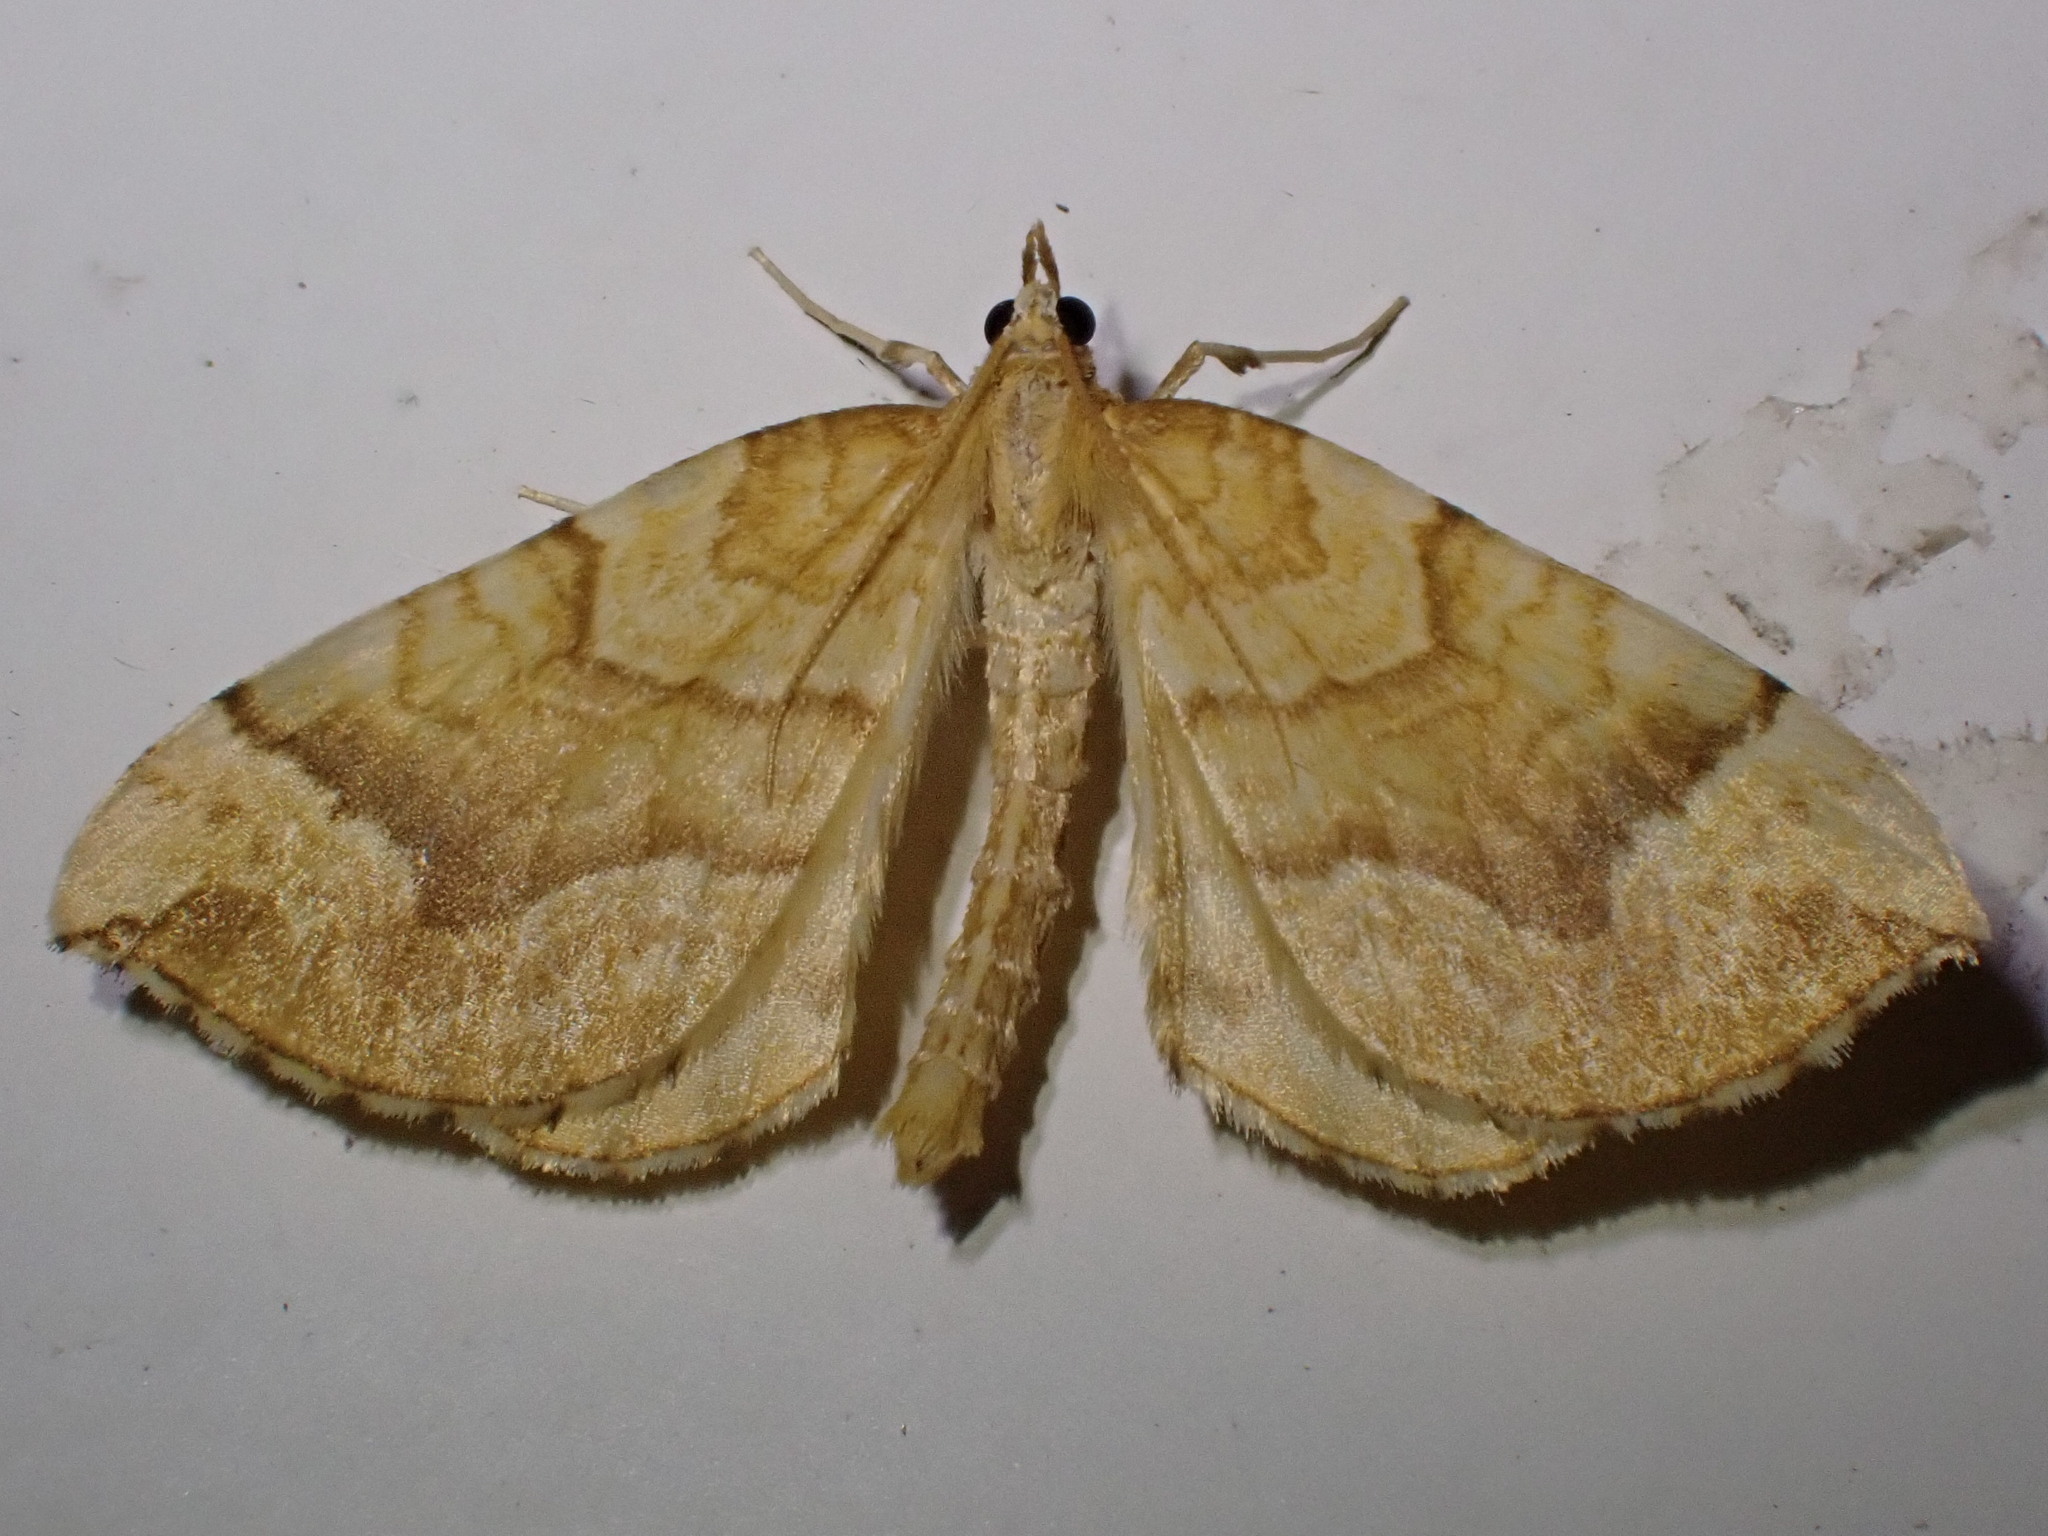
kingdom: Animalia
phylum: Arthropoda
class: Insecta
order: Lepidoptera
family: Geometridae
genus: Eulithis
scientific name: Eulithis mellinata
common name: Spinach
